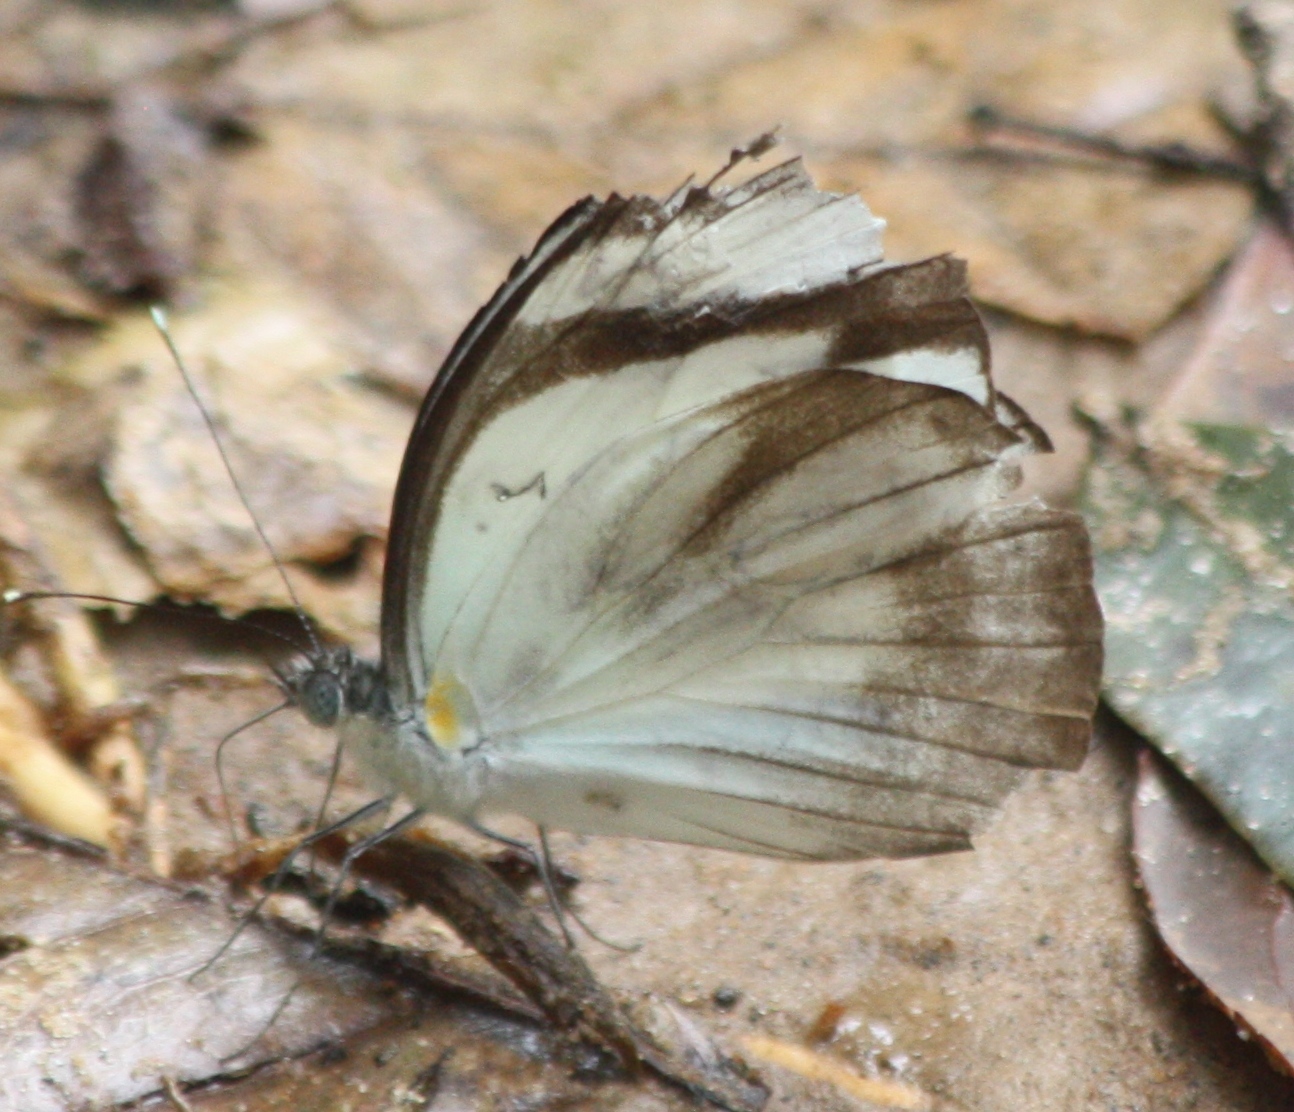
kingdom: Animalia
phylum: Arthropoda
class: Insecta
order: Lepidoptera
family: Pieridae
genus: Itaballia
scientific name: Itaballia demophile
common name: Cross-barred white
